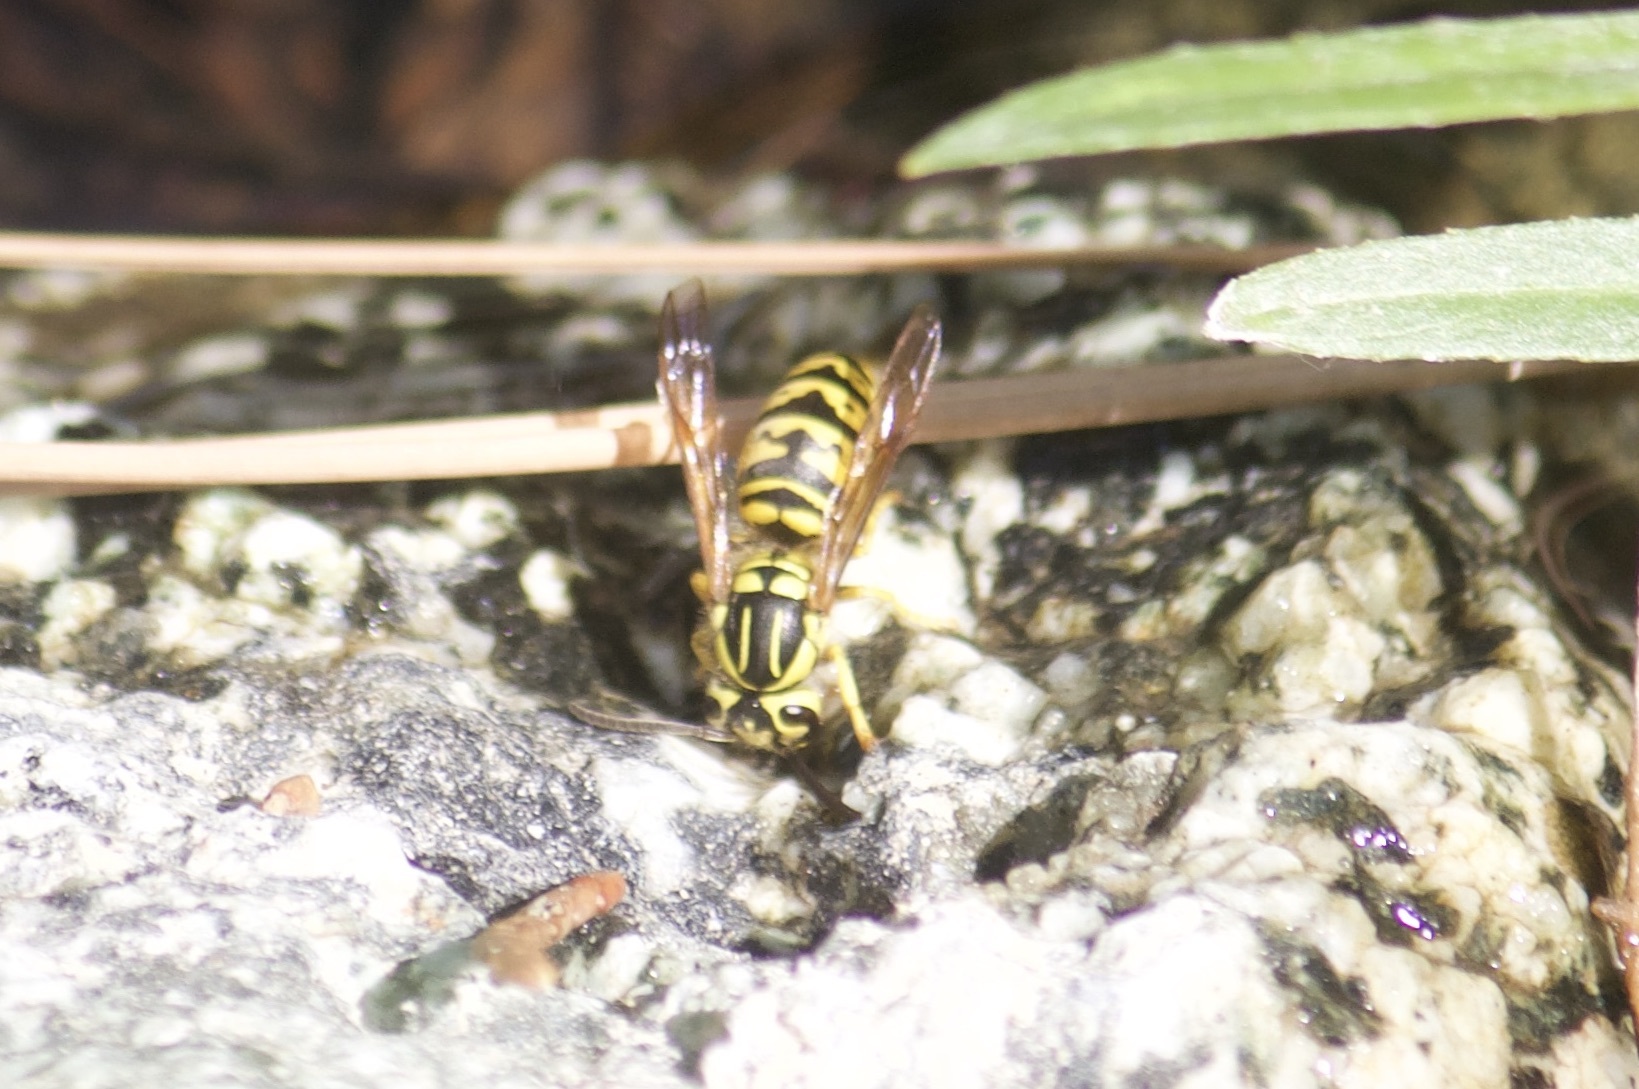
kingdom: Animalia
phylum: Arthropoda
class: Insecta
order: Hymenoptera
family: Vespidae
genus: Vespula
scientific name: Vespula sulphurea
